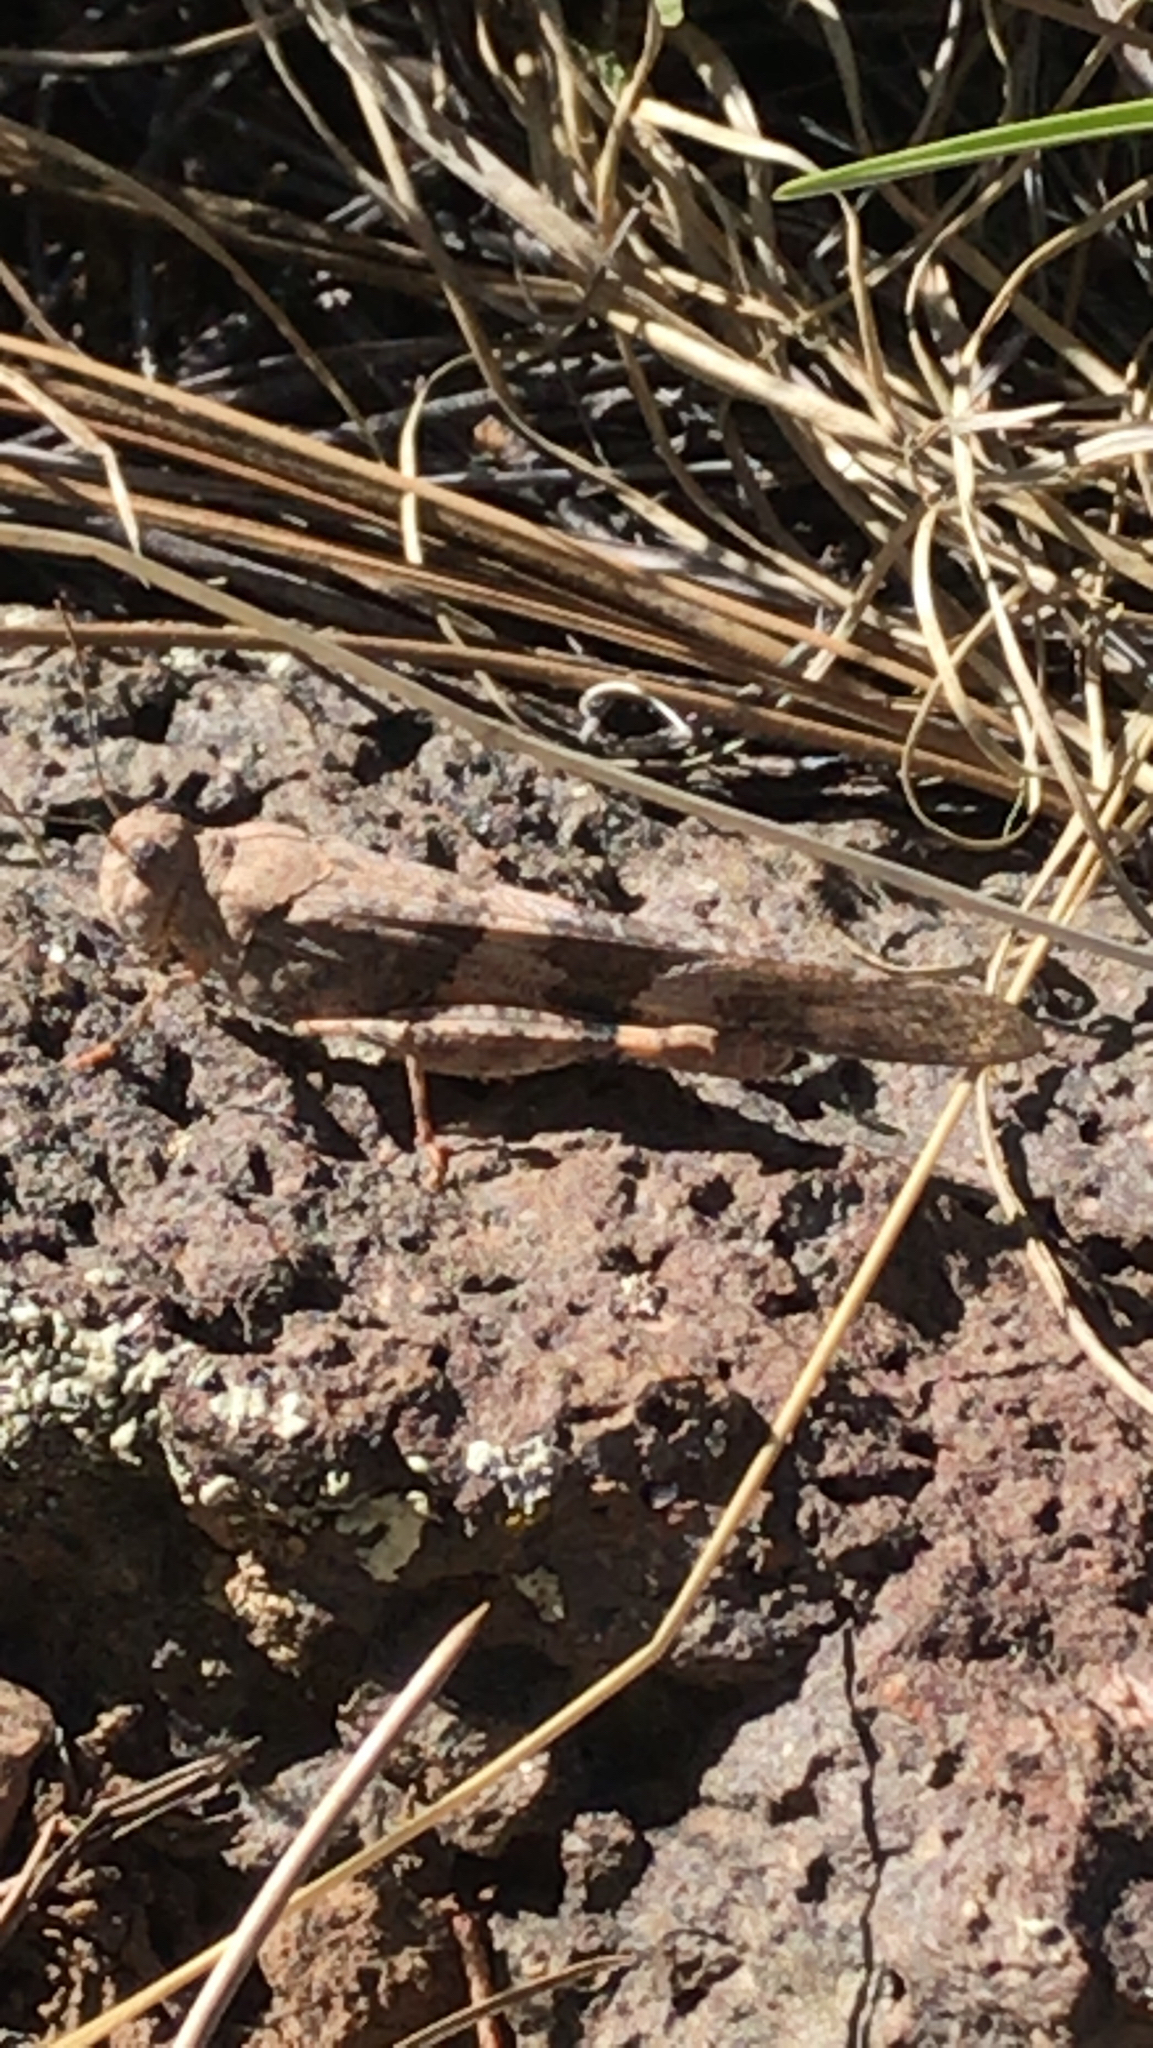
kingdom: Animalia
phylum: Arthropoda
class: Insecta
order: Orthoptera
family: Acrididae
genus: Trimerotropis
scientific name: Trimerotropis pallidipennis
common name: Pallid-winged grasshopper
